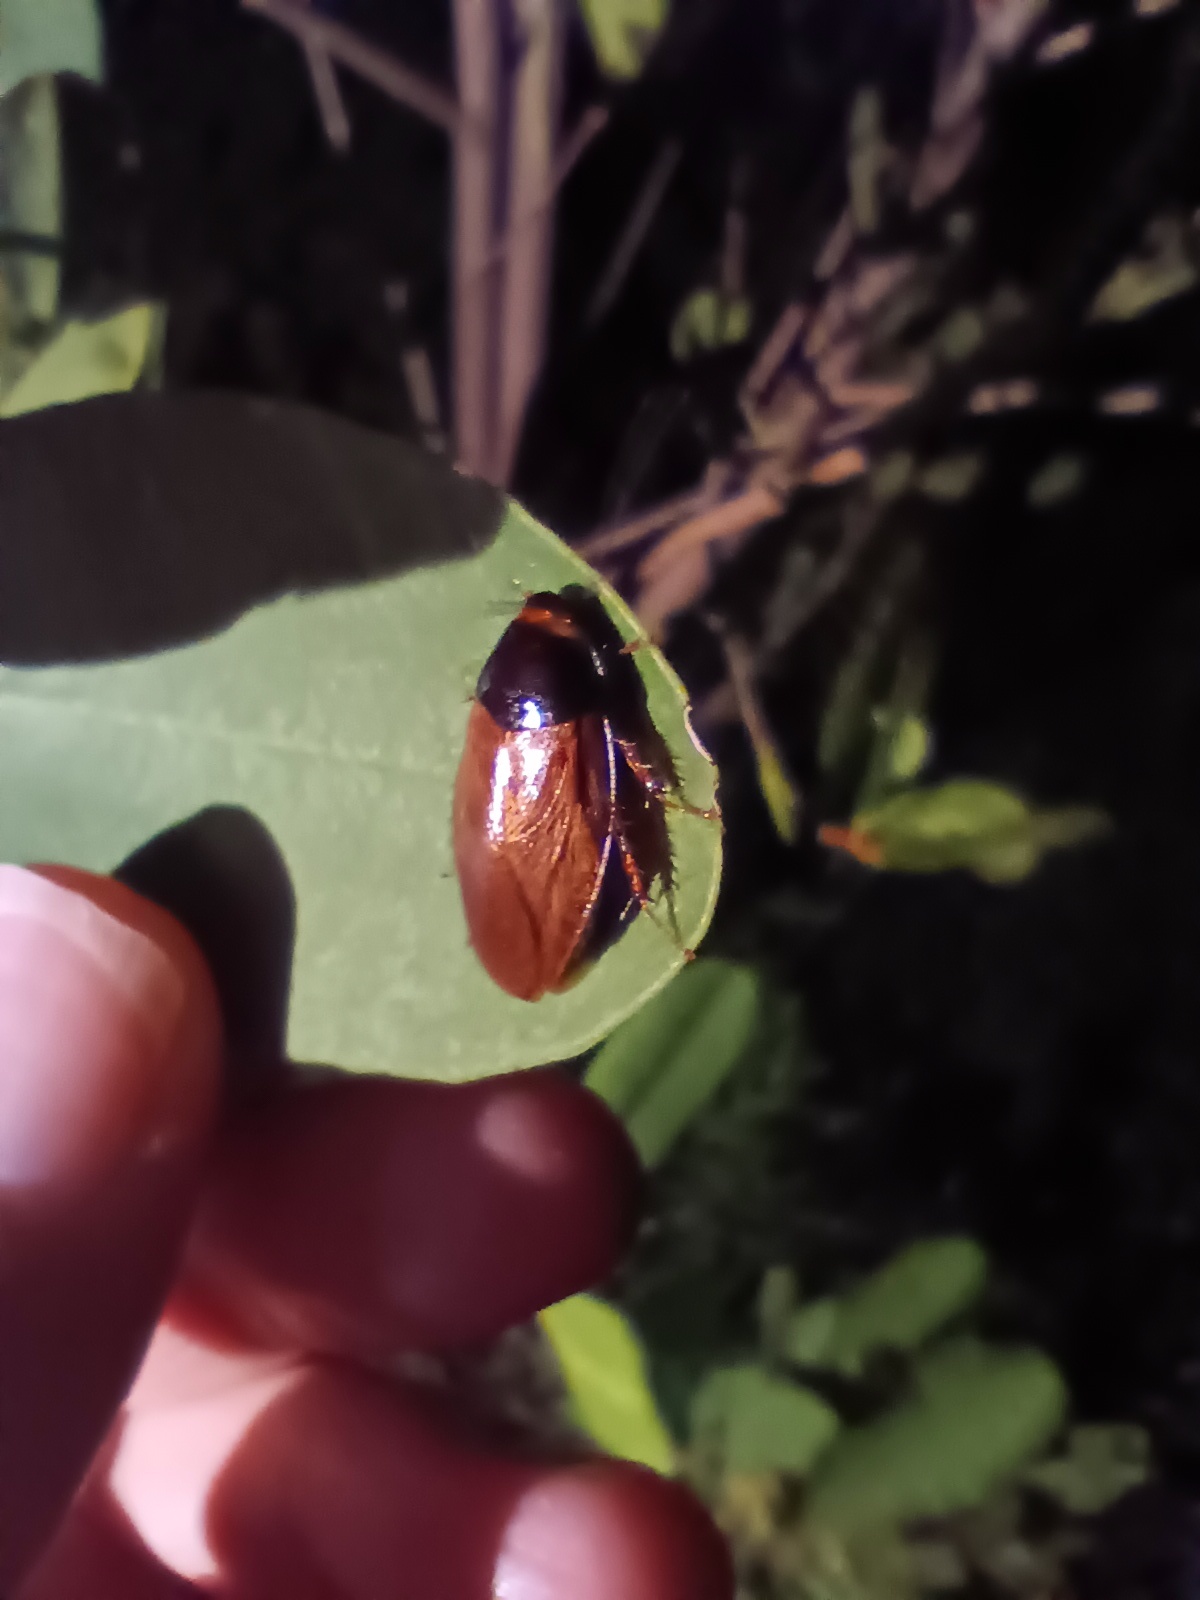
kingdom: Animalia
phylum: Arthropoda
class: Insecta
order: Blattodea
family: Blaberidae
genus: Pycnoscelus
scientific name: Pycnoscelus surinamensis
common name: Surinam cockroach
